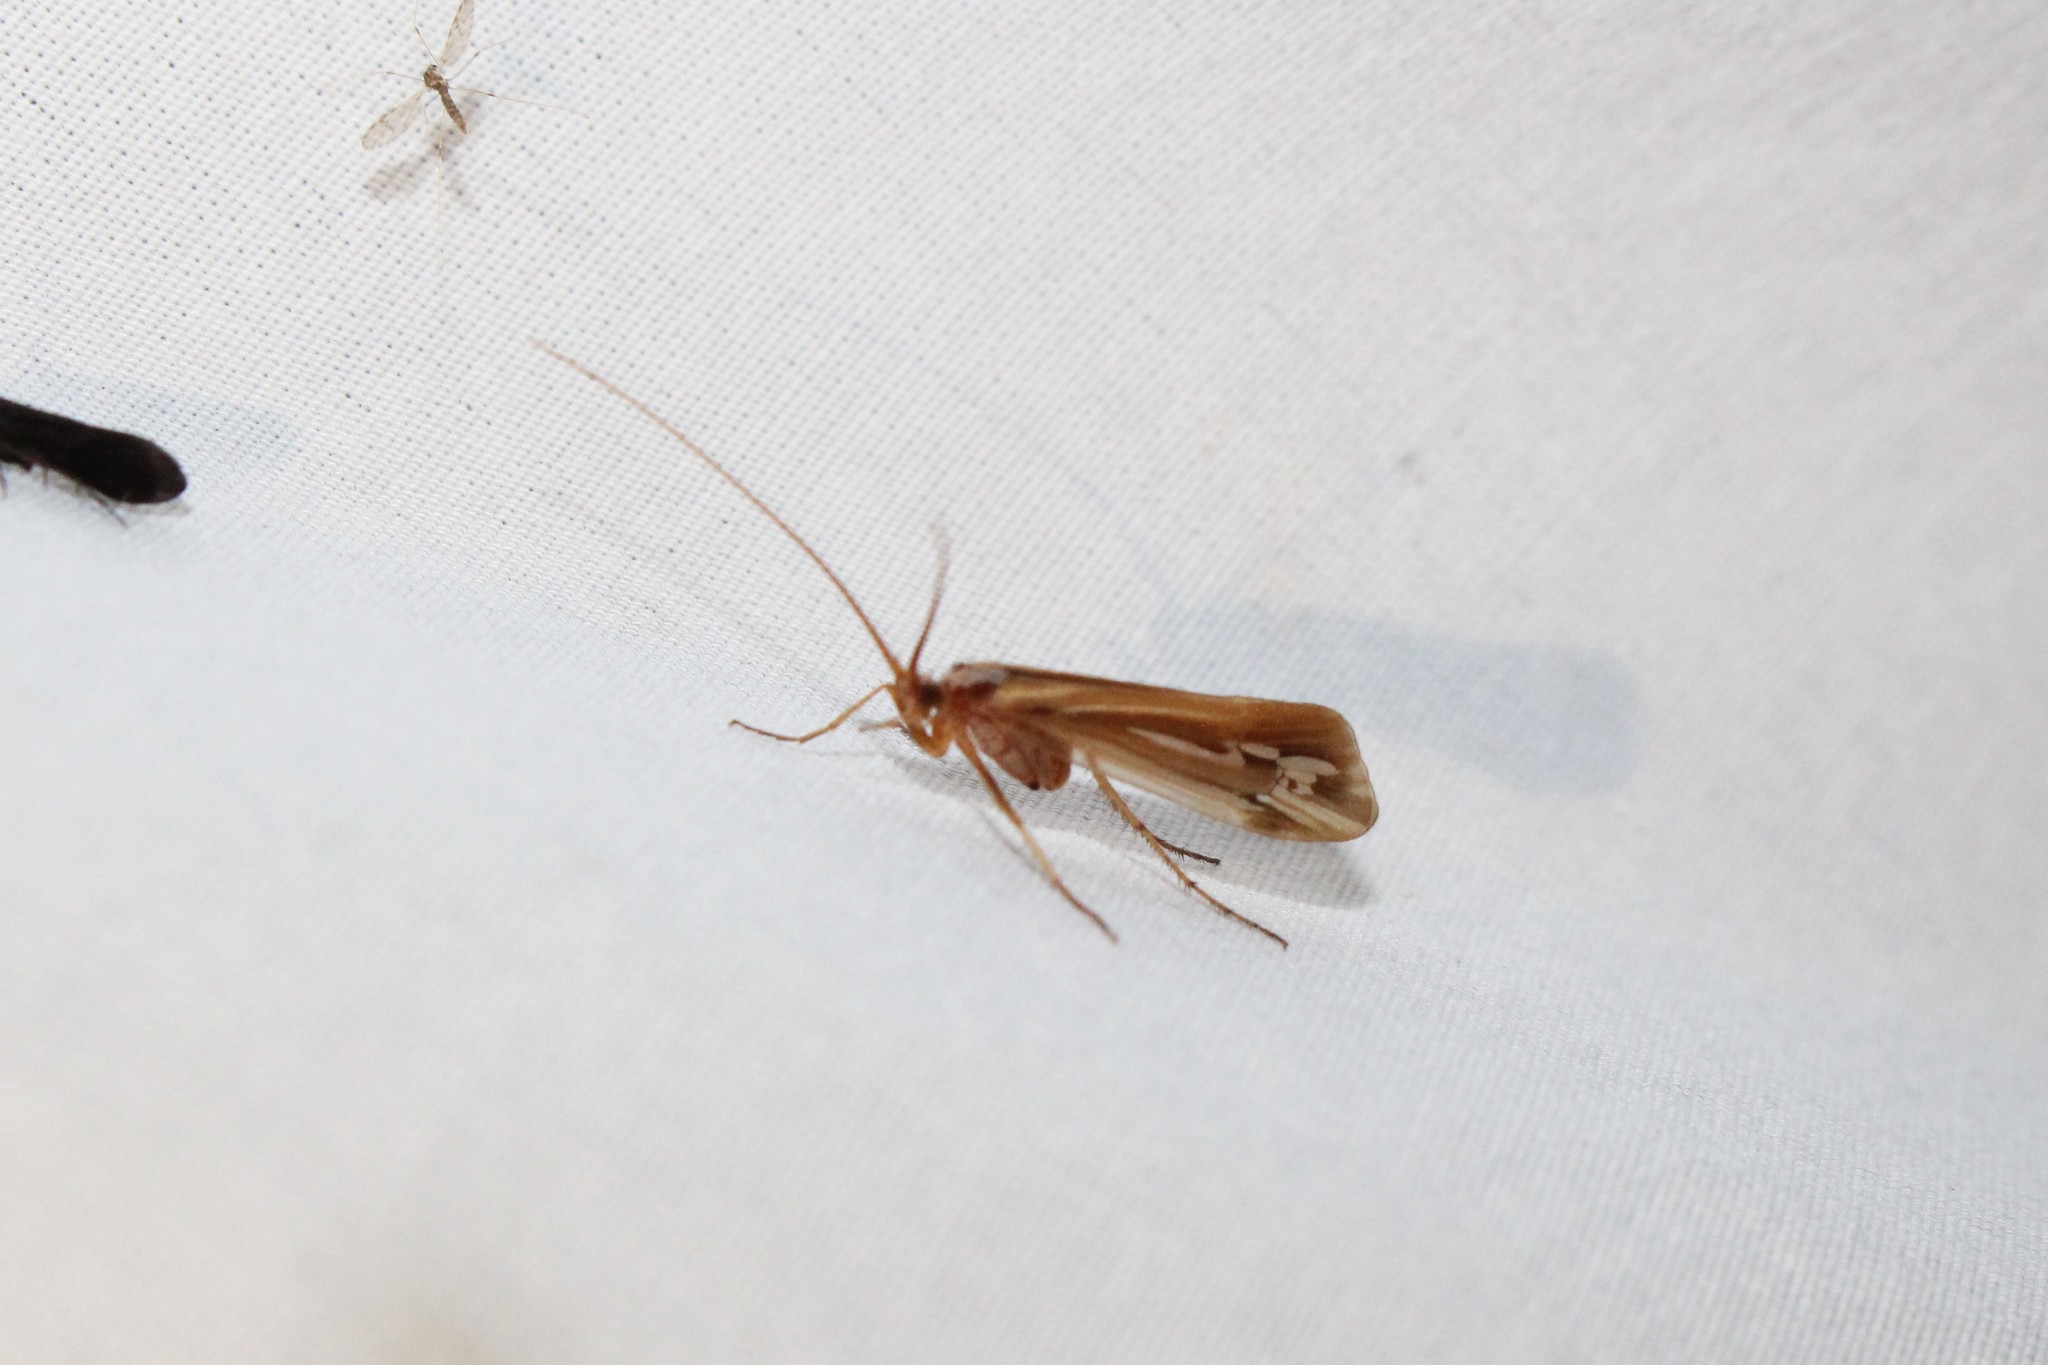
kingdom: Animalia
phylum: Arthropoda
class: Insecta
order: Trichoptera
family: Limnephilidae
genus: Limnephilus
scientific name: Limnephilus ornatus
